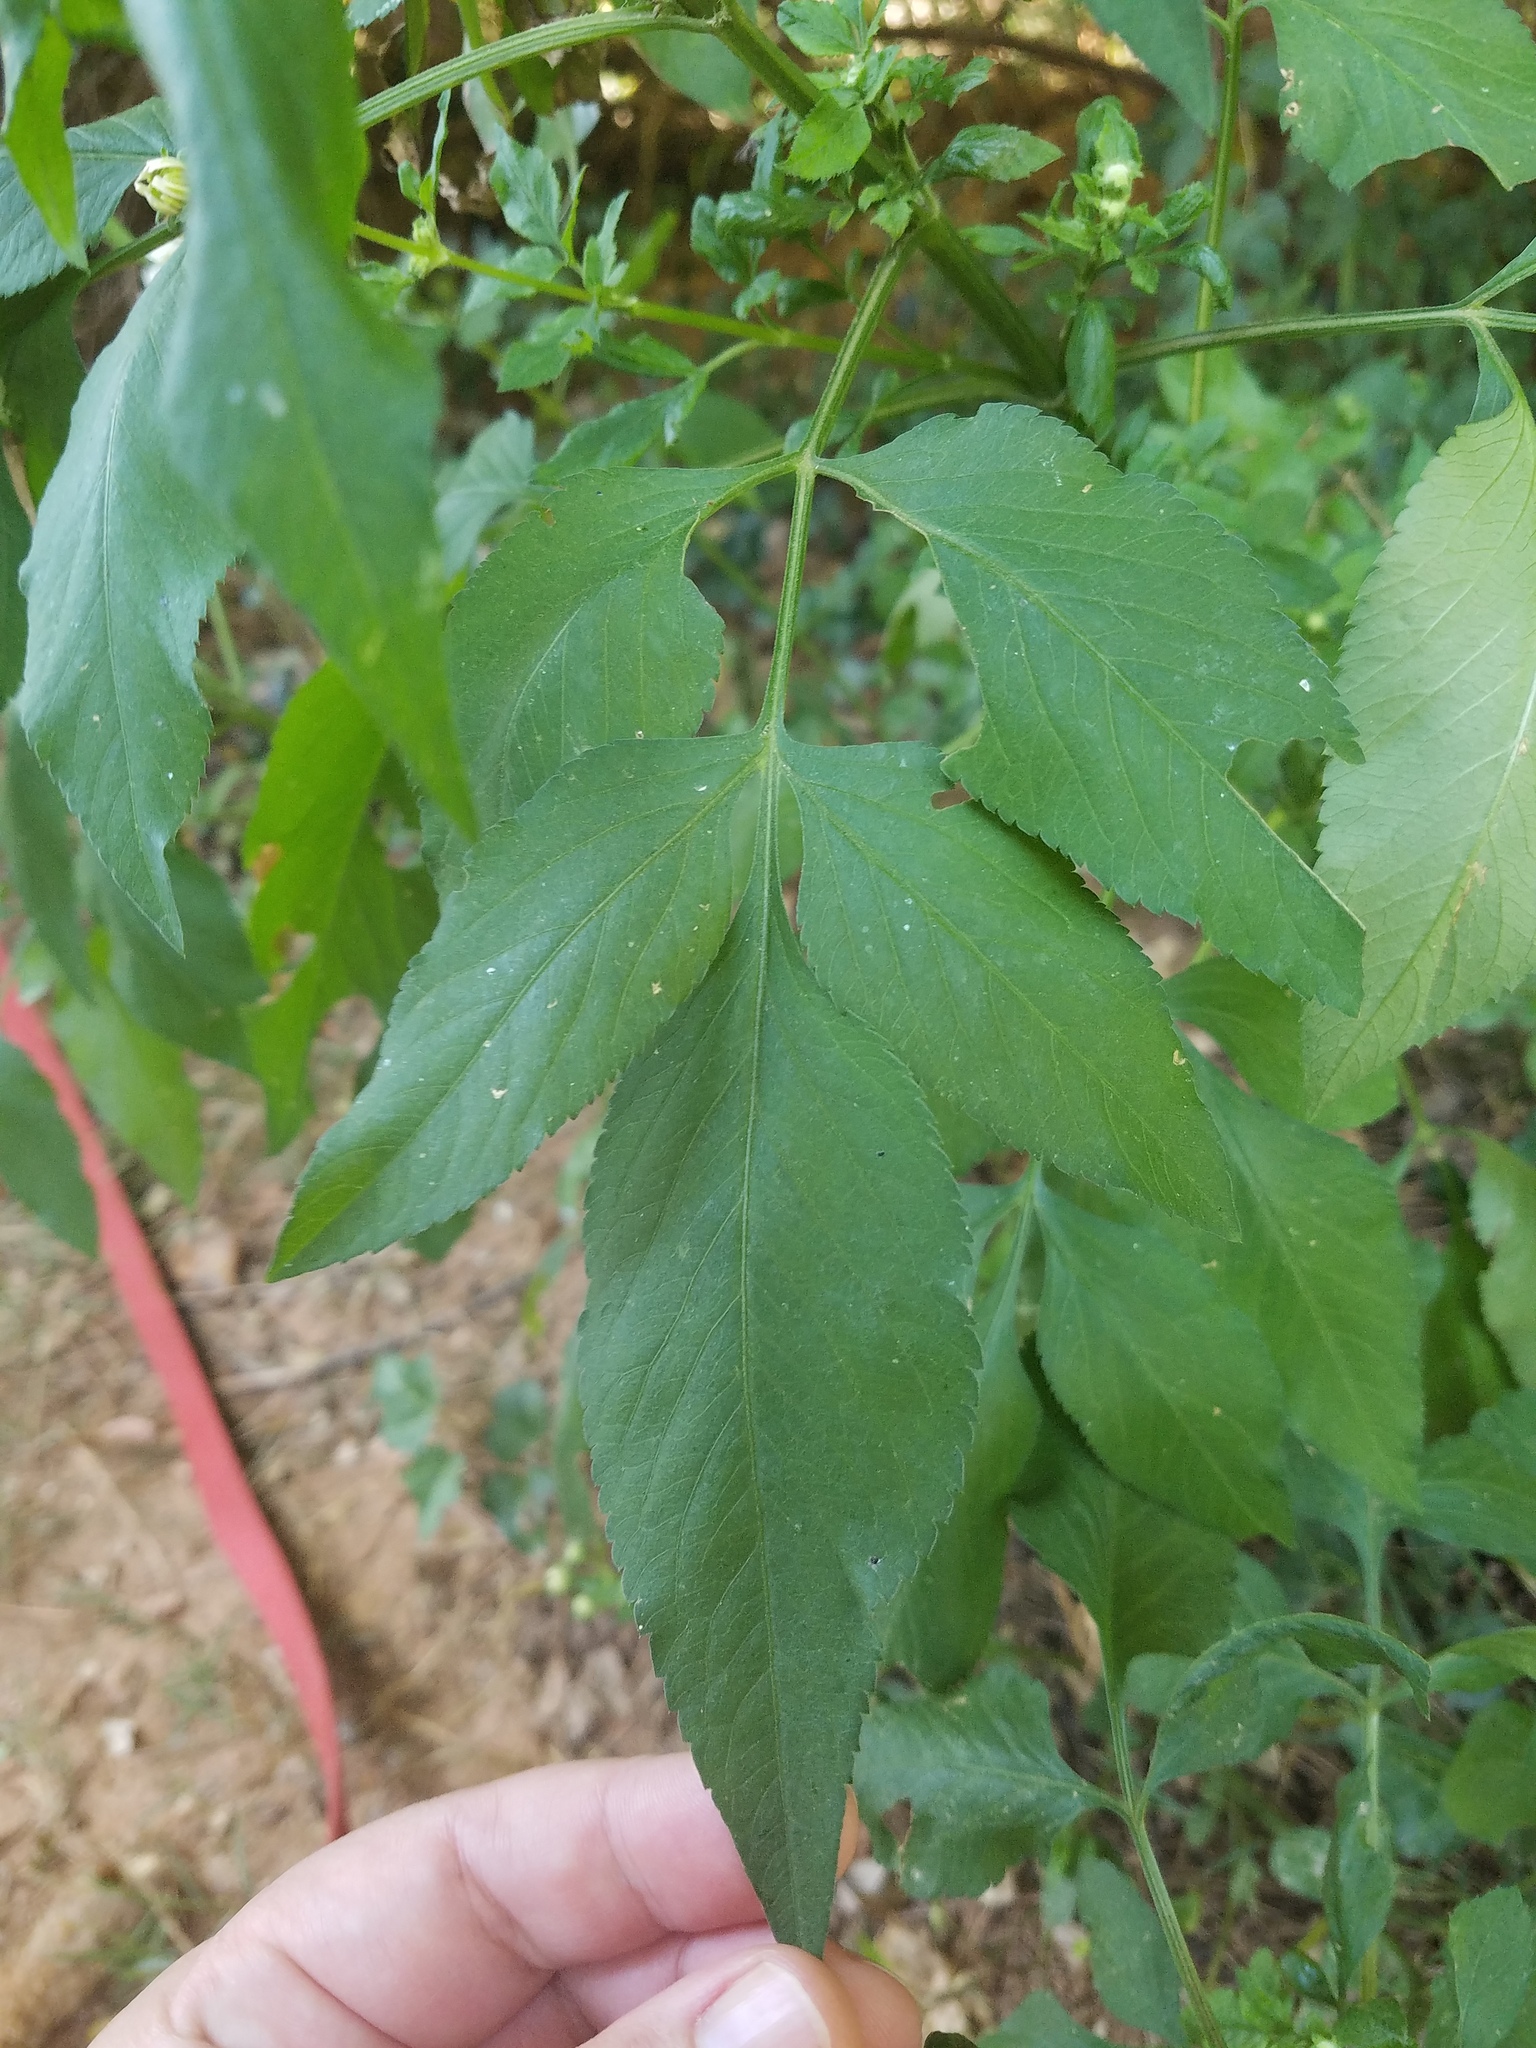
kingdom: Plantae
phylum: Tracheophyta
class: Magnoliopsida
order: Asterales
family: Asteraceae
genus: Bidens
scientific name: Bidens alba
